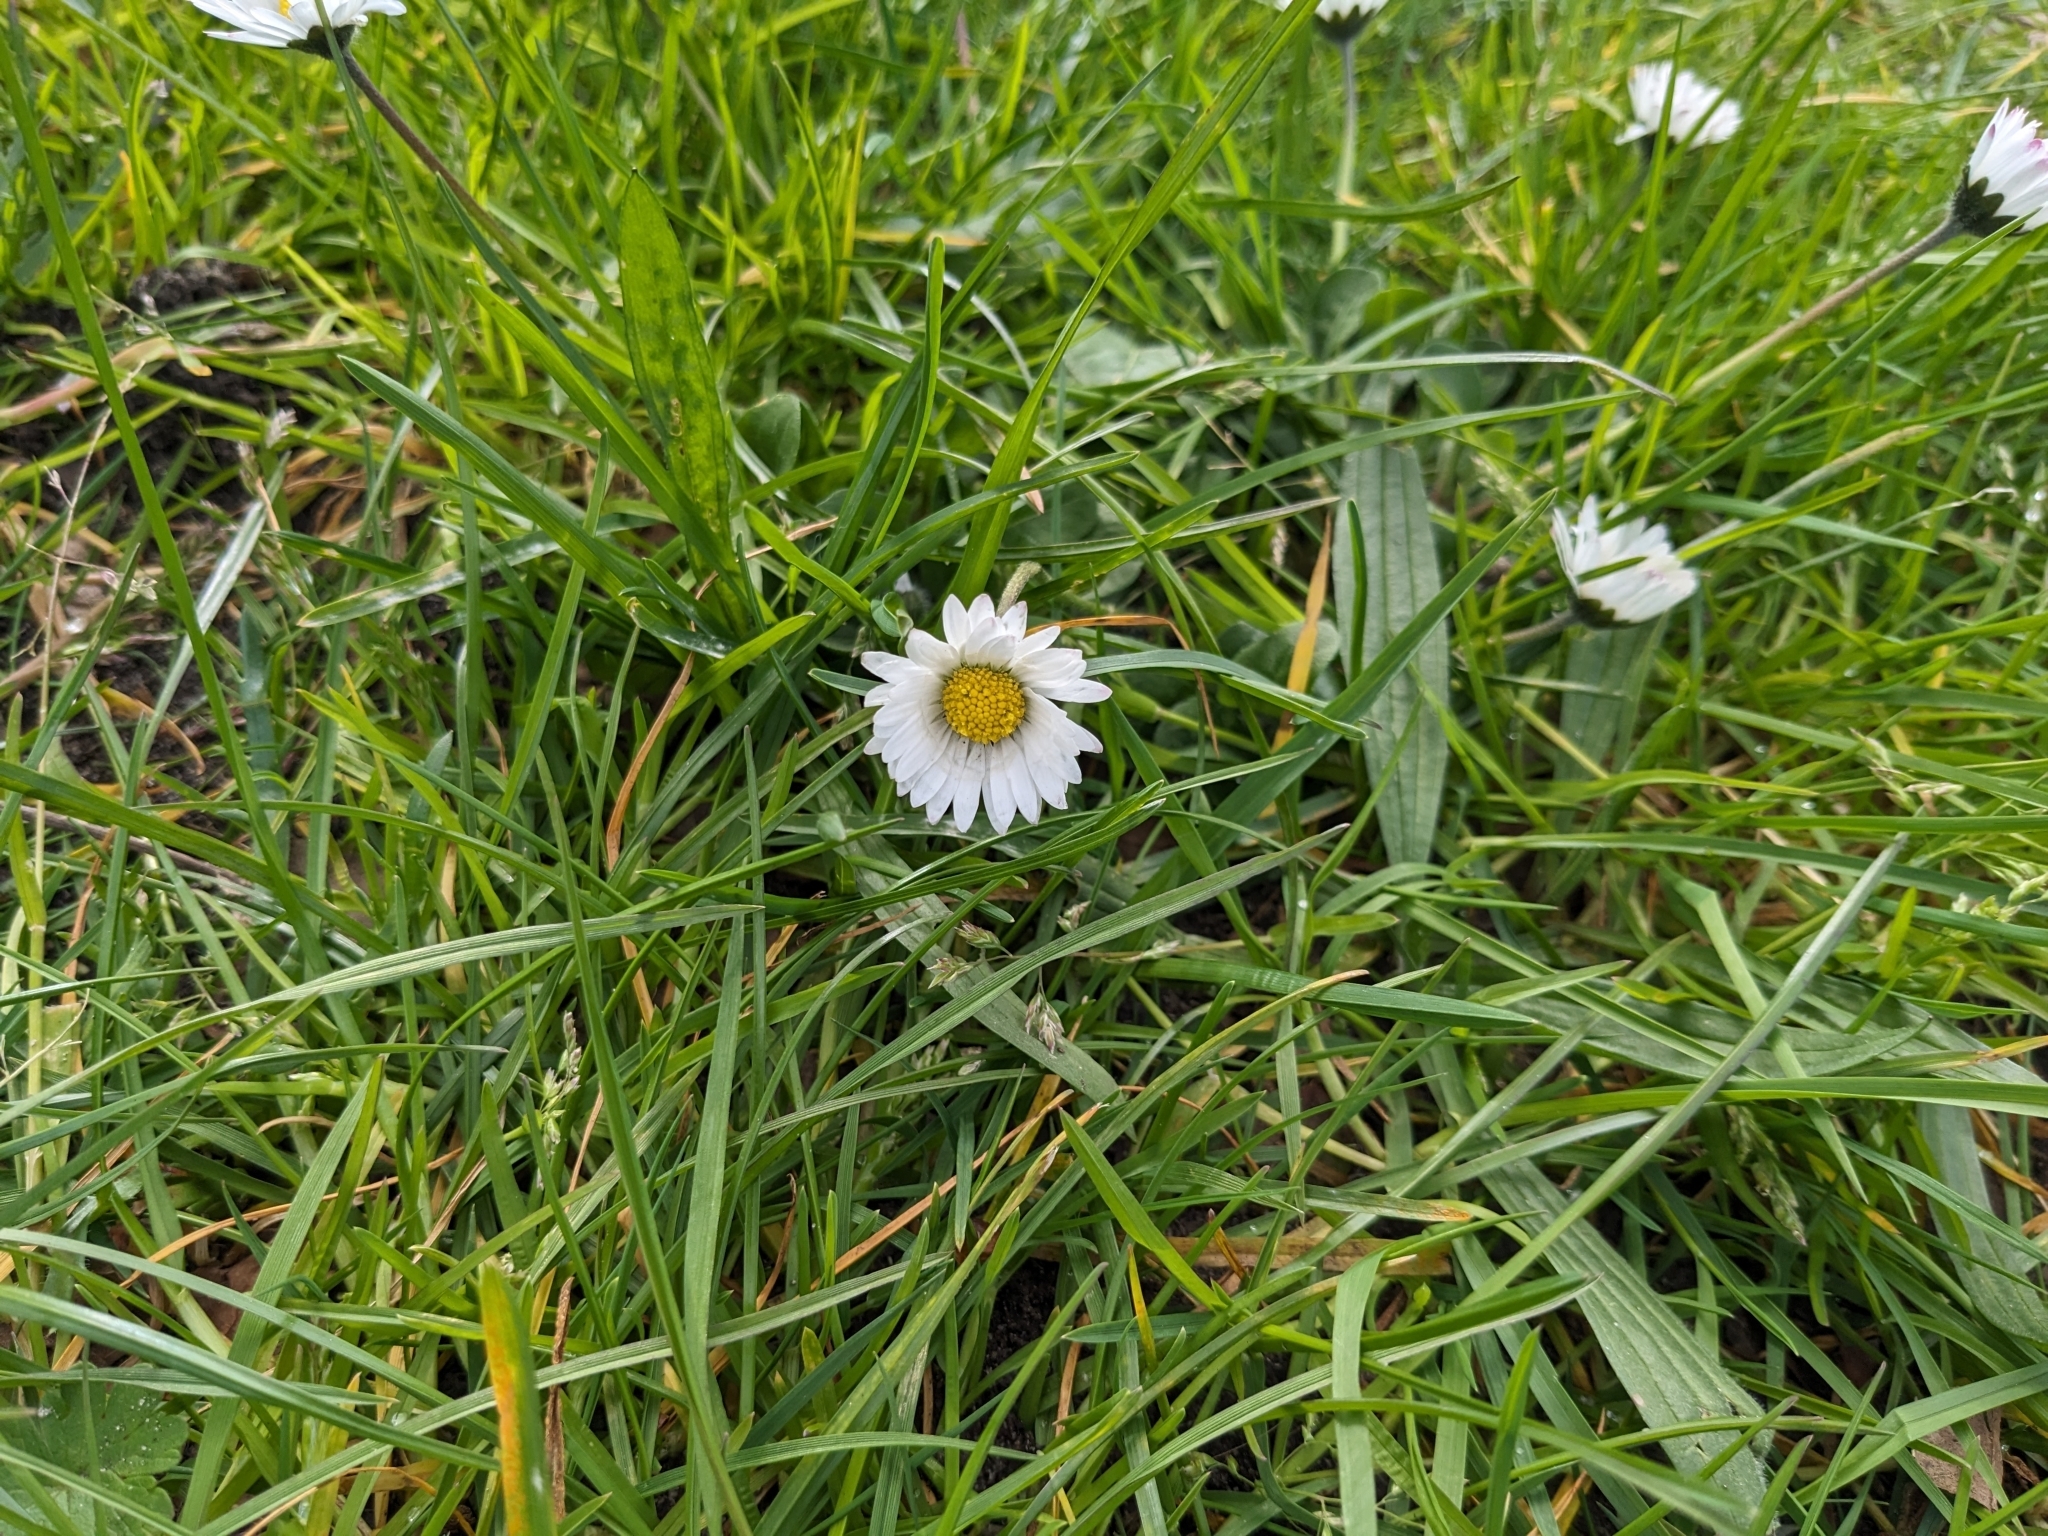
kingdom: Plantae
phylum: Tracheophyta
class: Magnoliopsida
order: Asterales
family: Asteraceae
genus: Bellis
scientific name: Bellis perennis
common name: Lawndaisy
